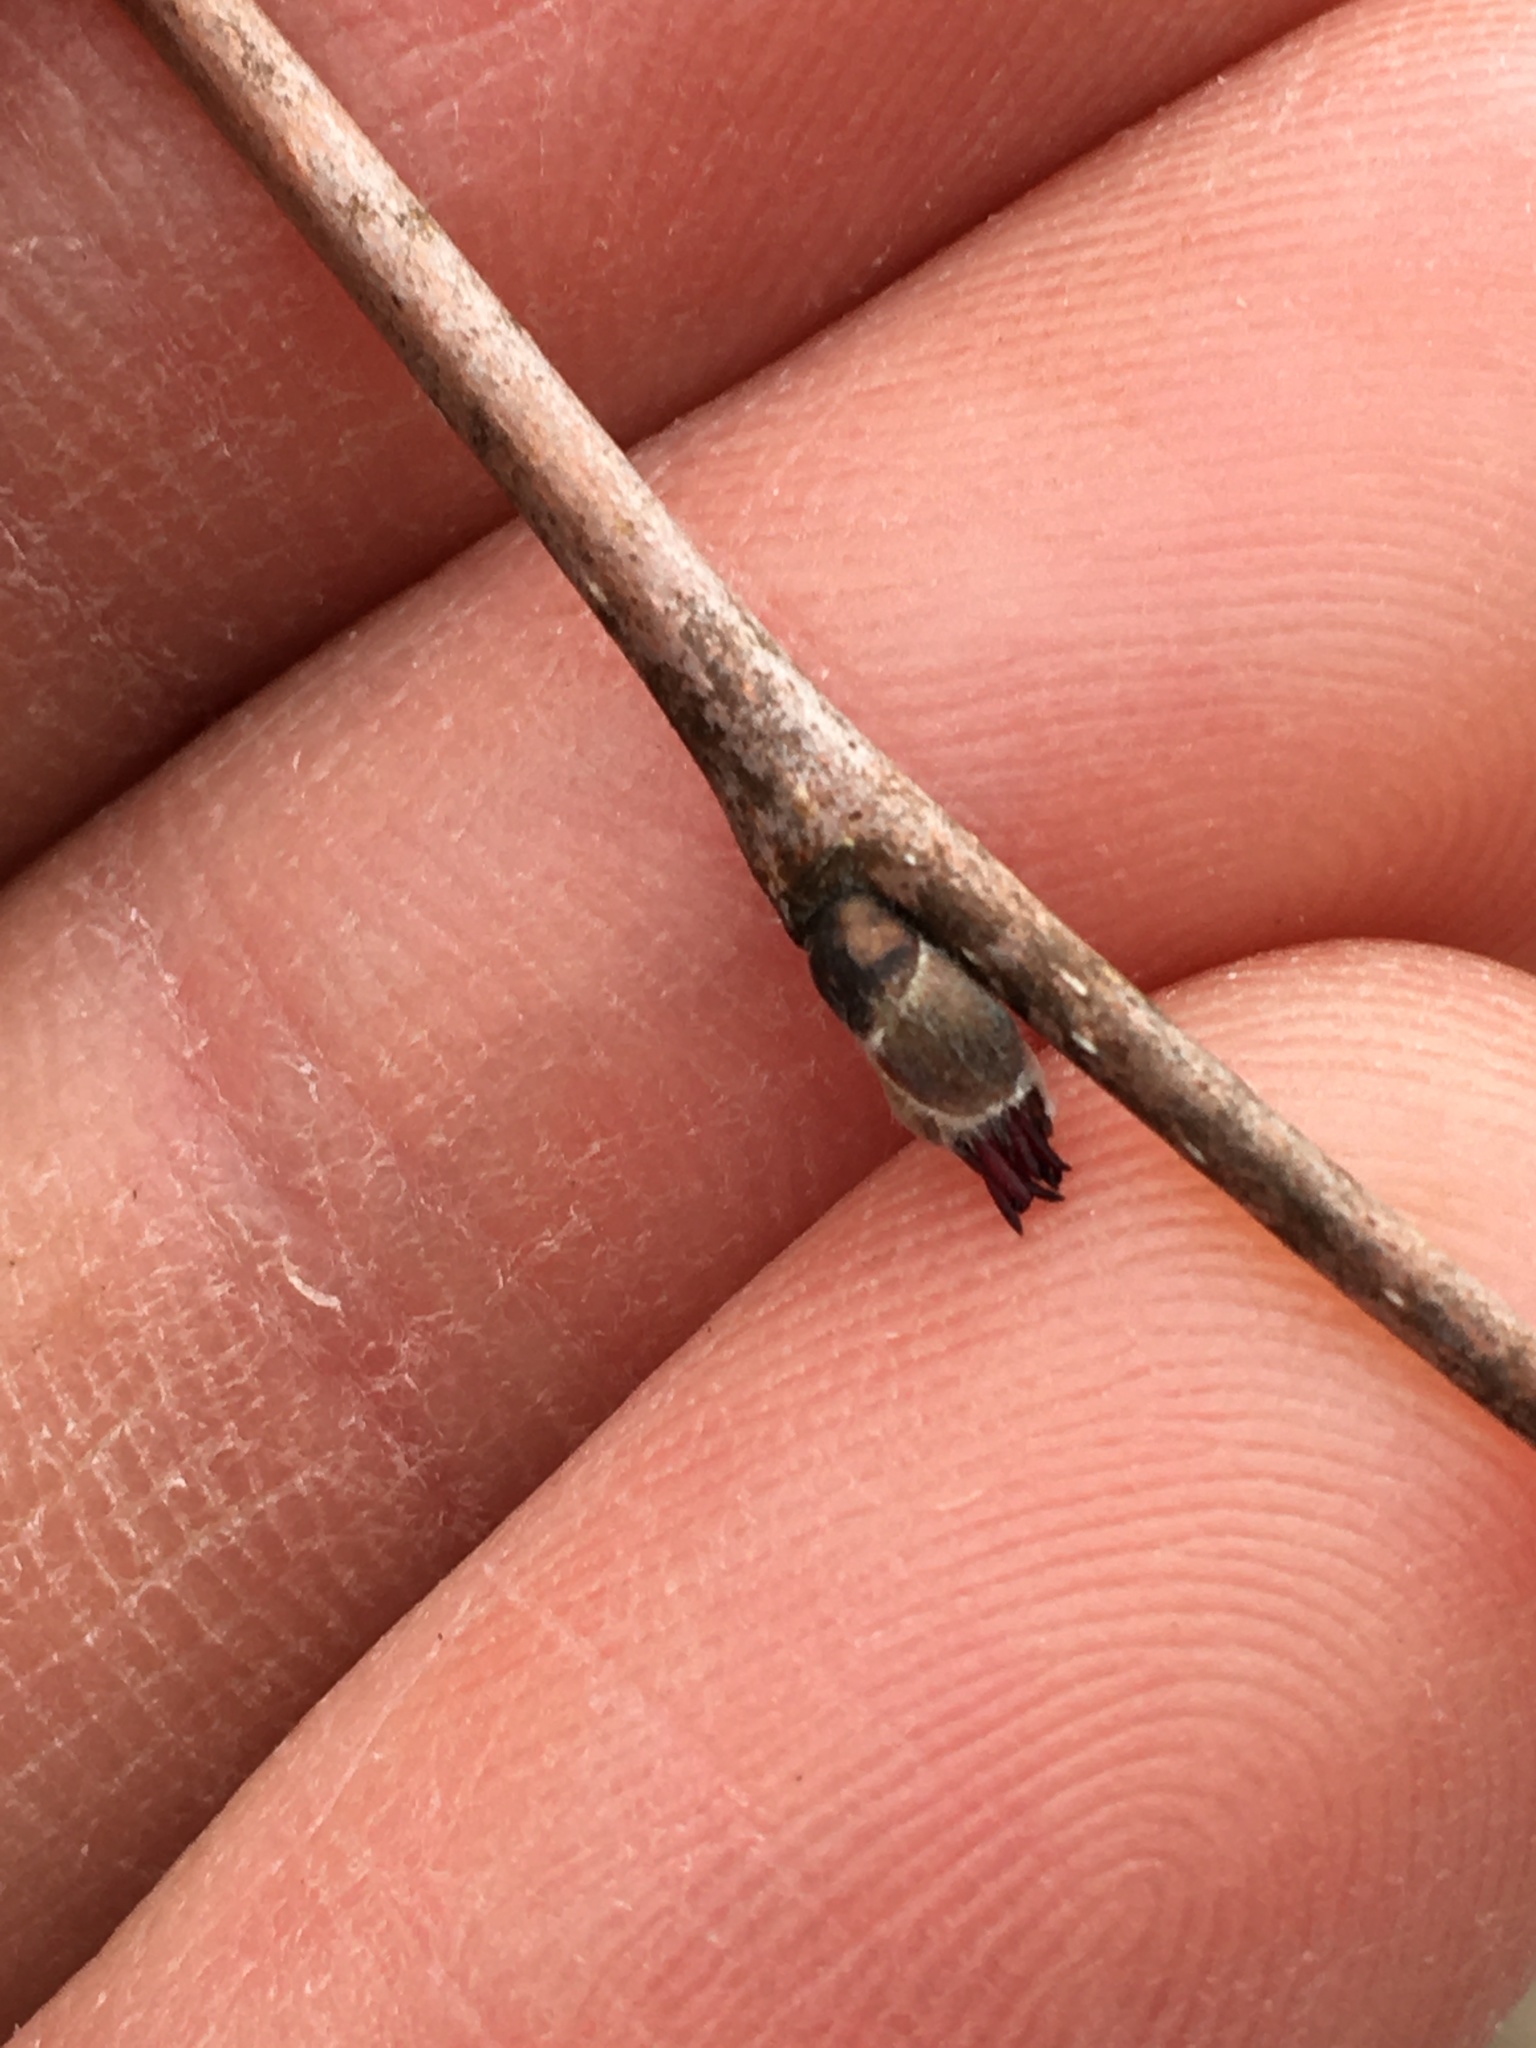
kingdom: Plantae
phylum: Tracheophyta
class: Magnoliopsida
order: Fagales
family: Betulaceae
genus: Corylus
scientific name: Corylus cornuta
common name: Beaked hazel
